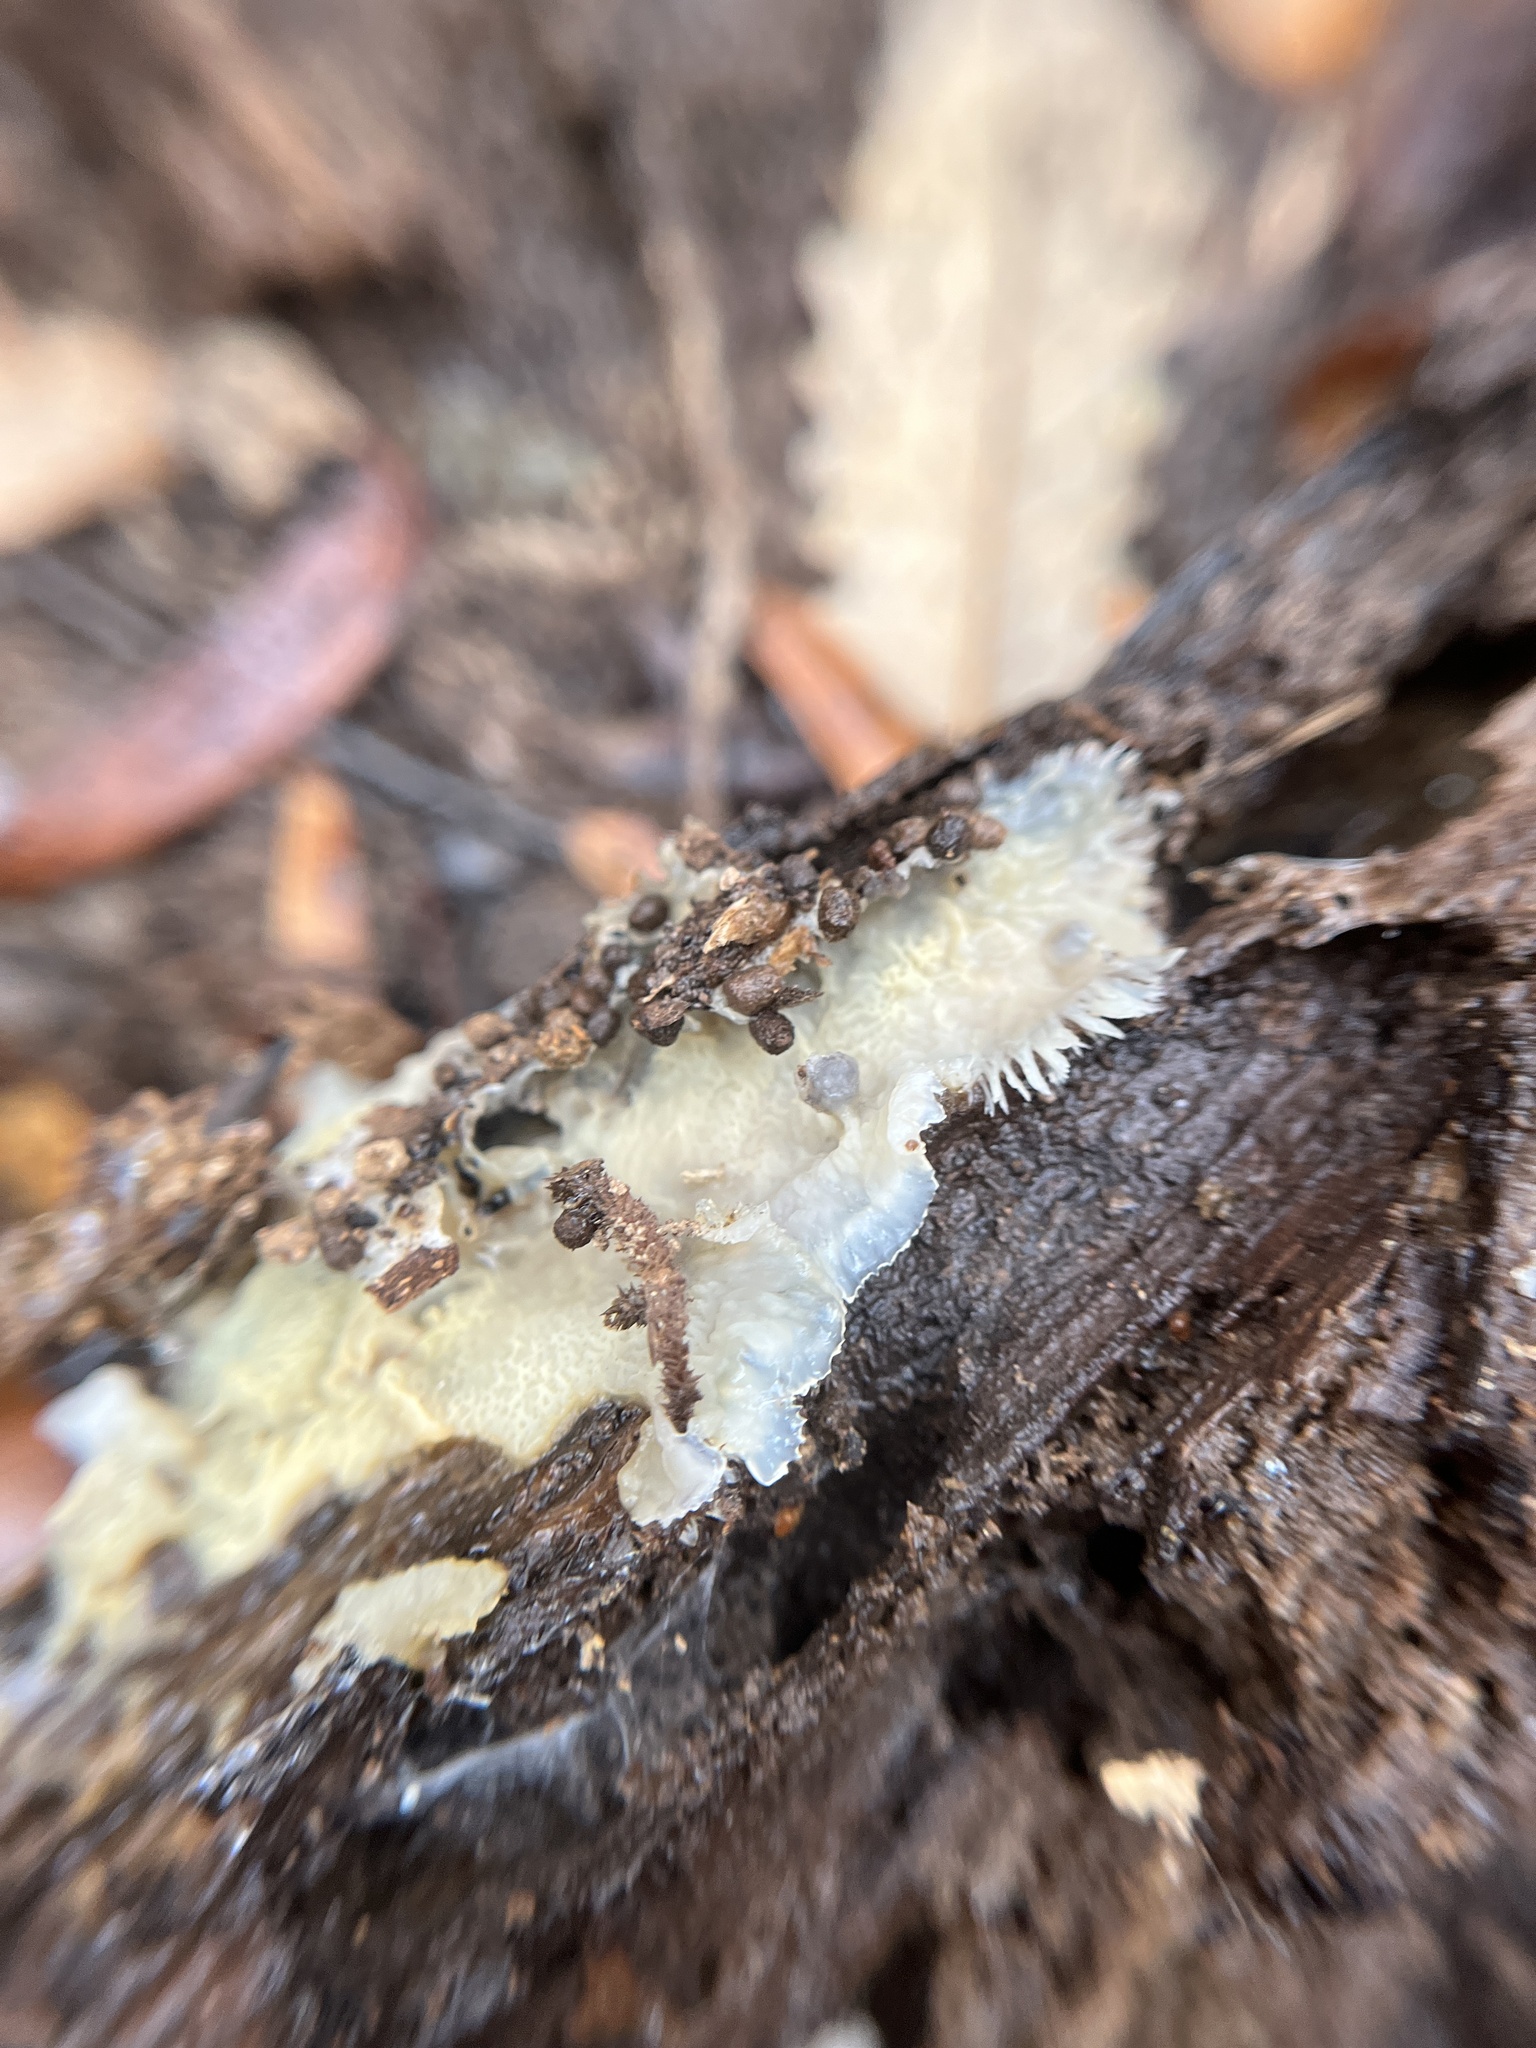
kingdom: Fungi
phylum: Basidiomycota
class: Agaricomycetes
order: Polyporales
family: Meruliaceae
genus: Phlebia
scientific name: Phlebia tremellosa
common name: Jelly rot
